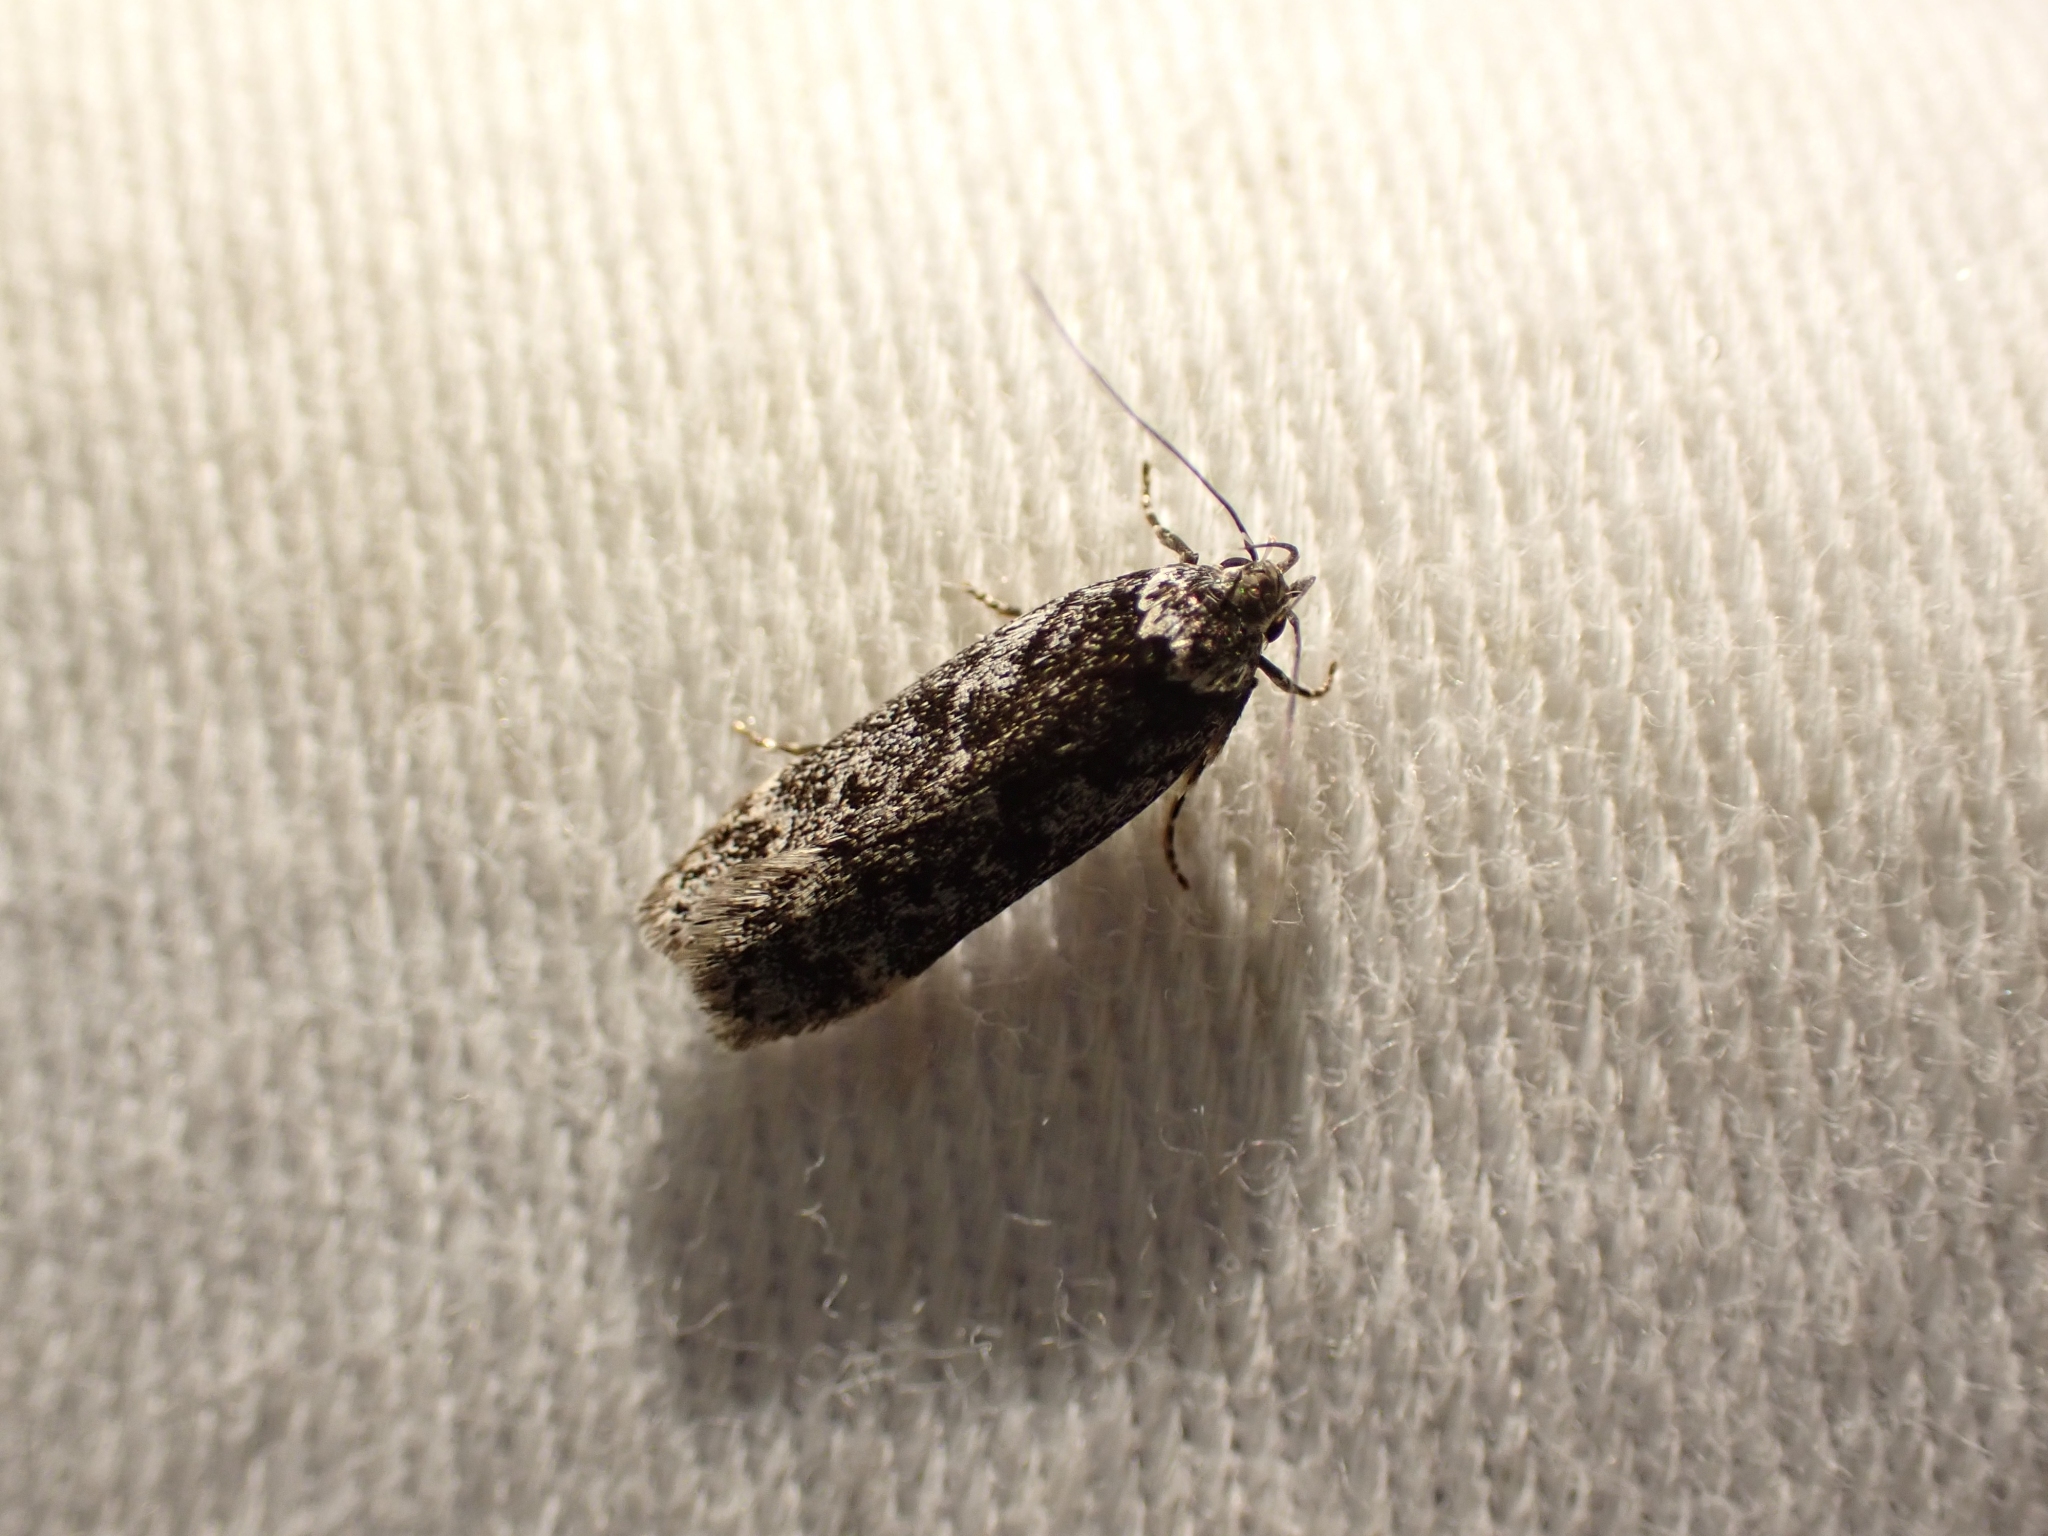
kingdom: Animalia
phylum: Arthropoda
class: Insecta
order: Lepidoptera
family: Gelechiidae
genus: Anacampsis
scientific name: Anacampsis niveopulvella
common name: Pale-headed aspen leafroller moth
